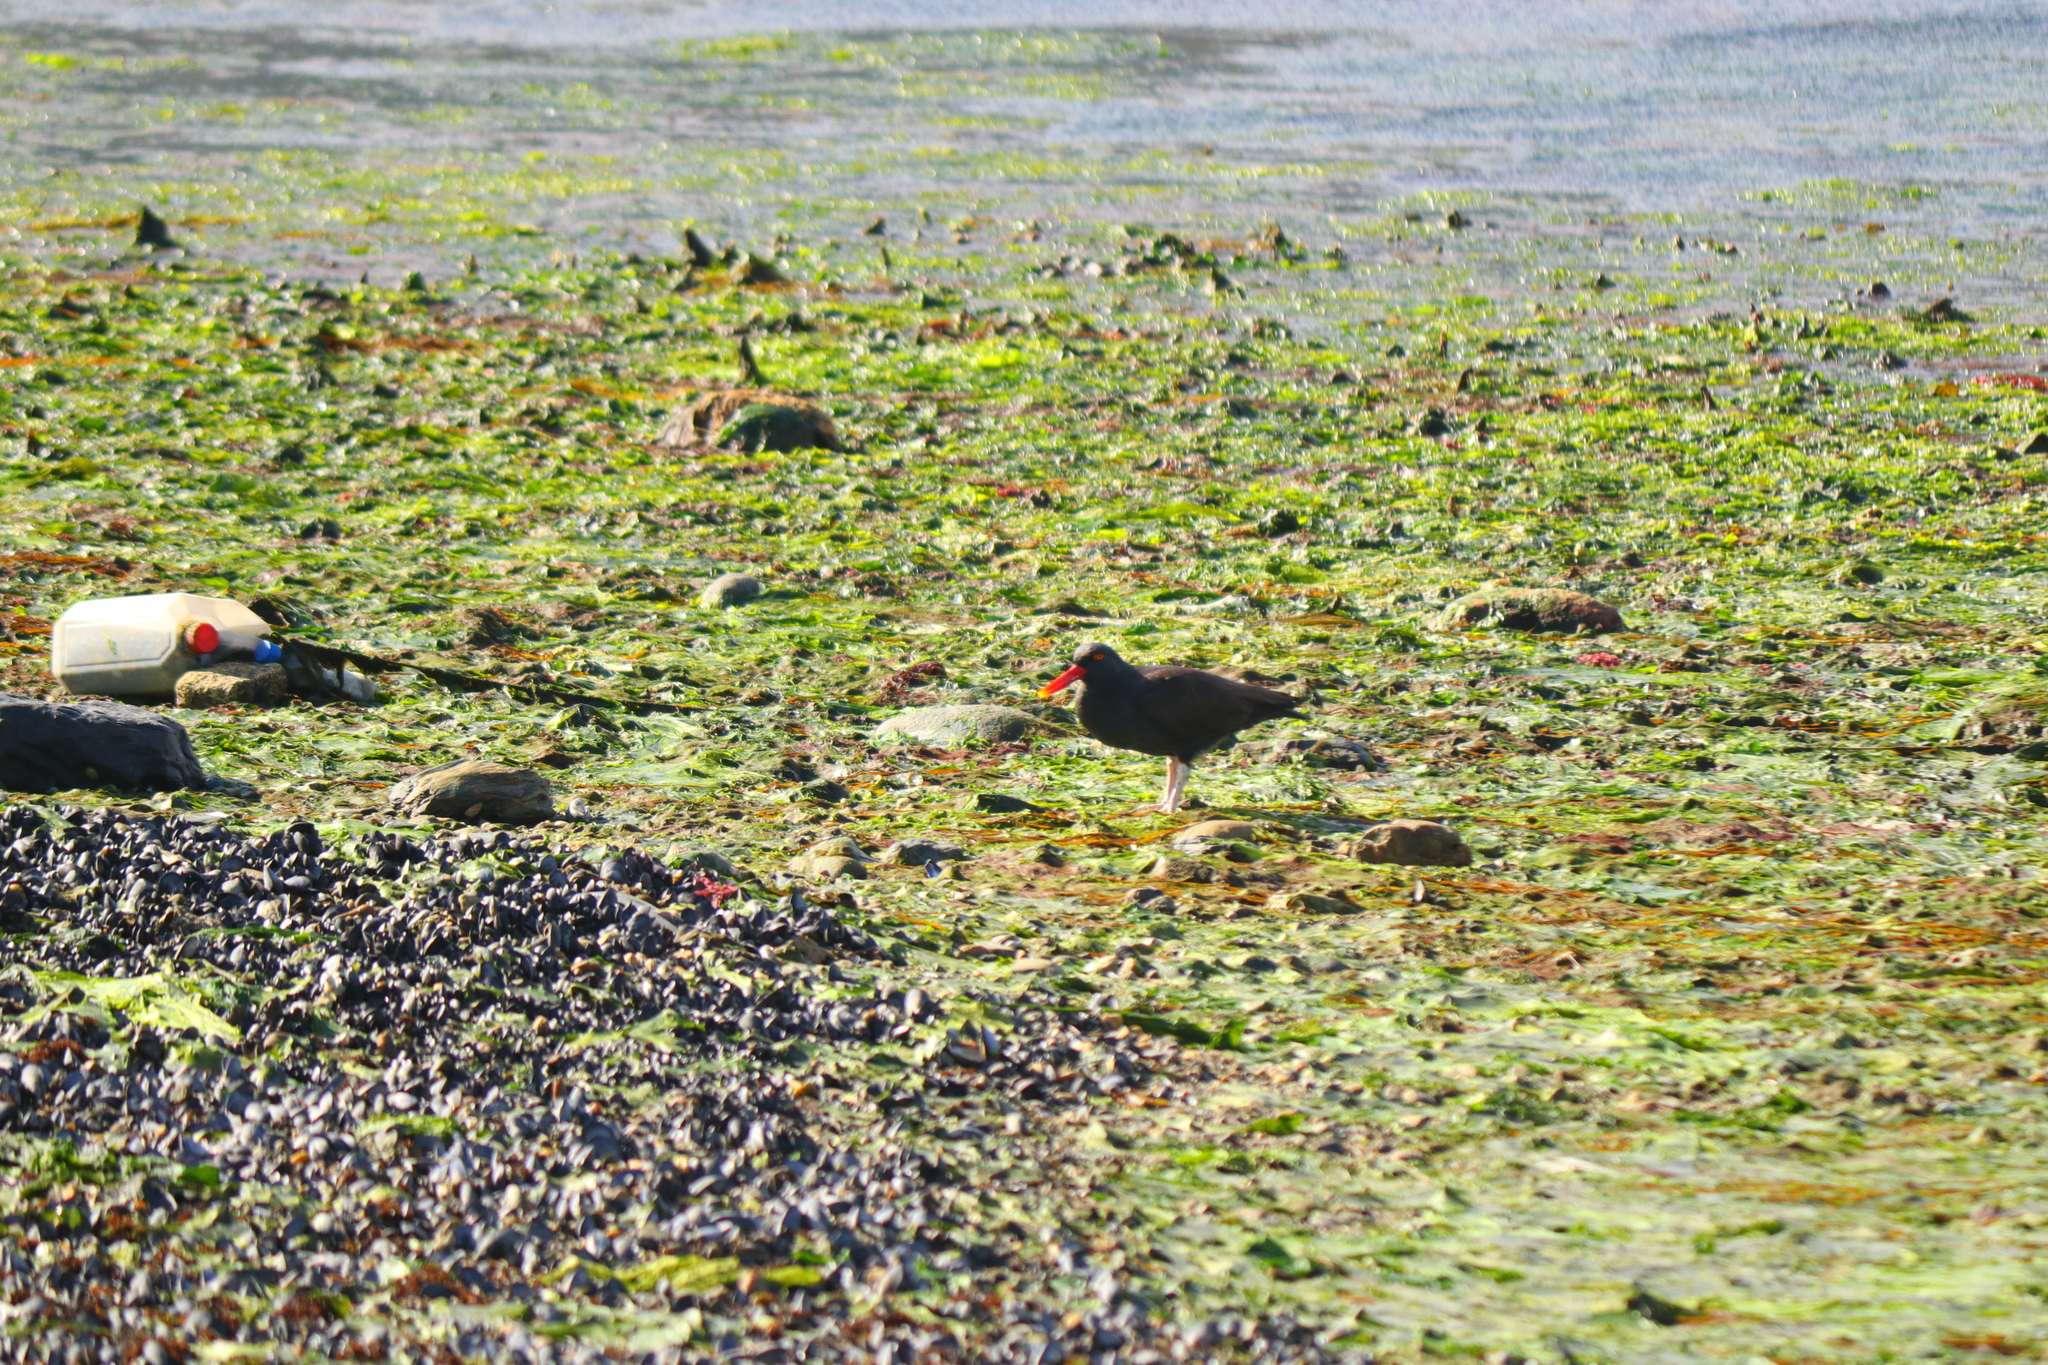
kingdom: Animalia
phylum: Chordata
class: Aves
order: Charadriiformes
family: Haematopodidae
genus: Haematopus
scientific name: Haematopus ater
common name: Blackish oystercatcher
